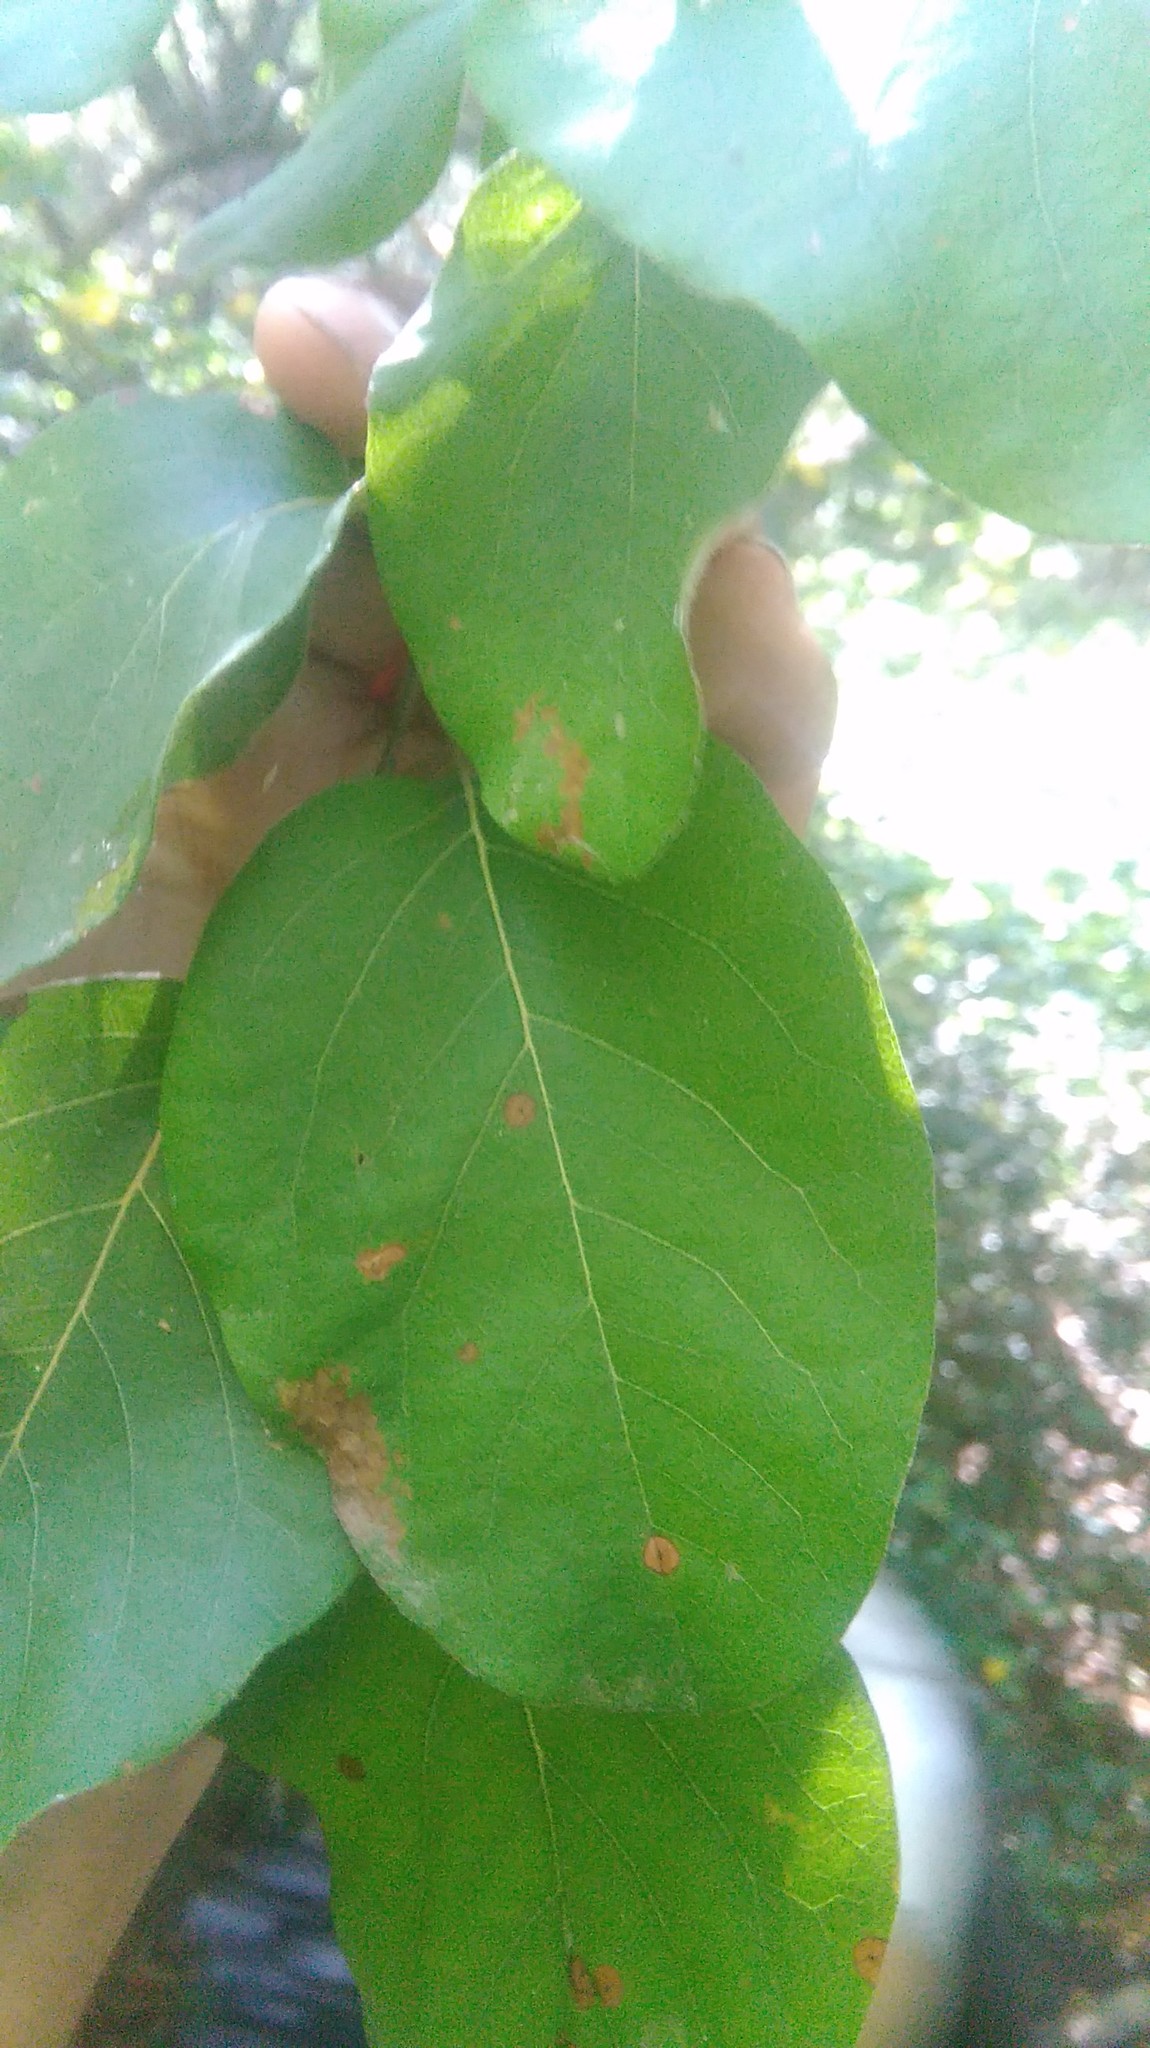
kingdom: Plantae
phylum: Tracheophyta
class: Magnoliopsida
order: Rosales
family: Rosaceae
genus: Cydonia
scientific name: Cydonia oblonga
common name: Quince
